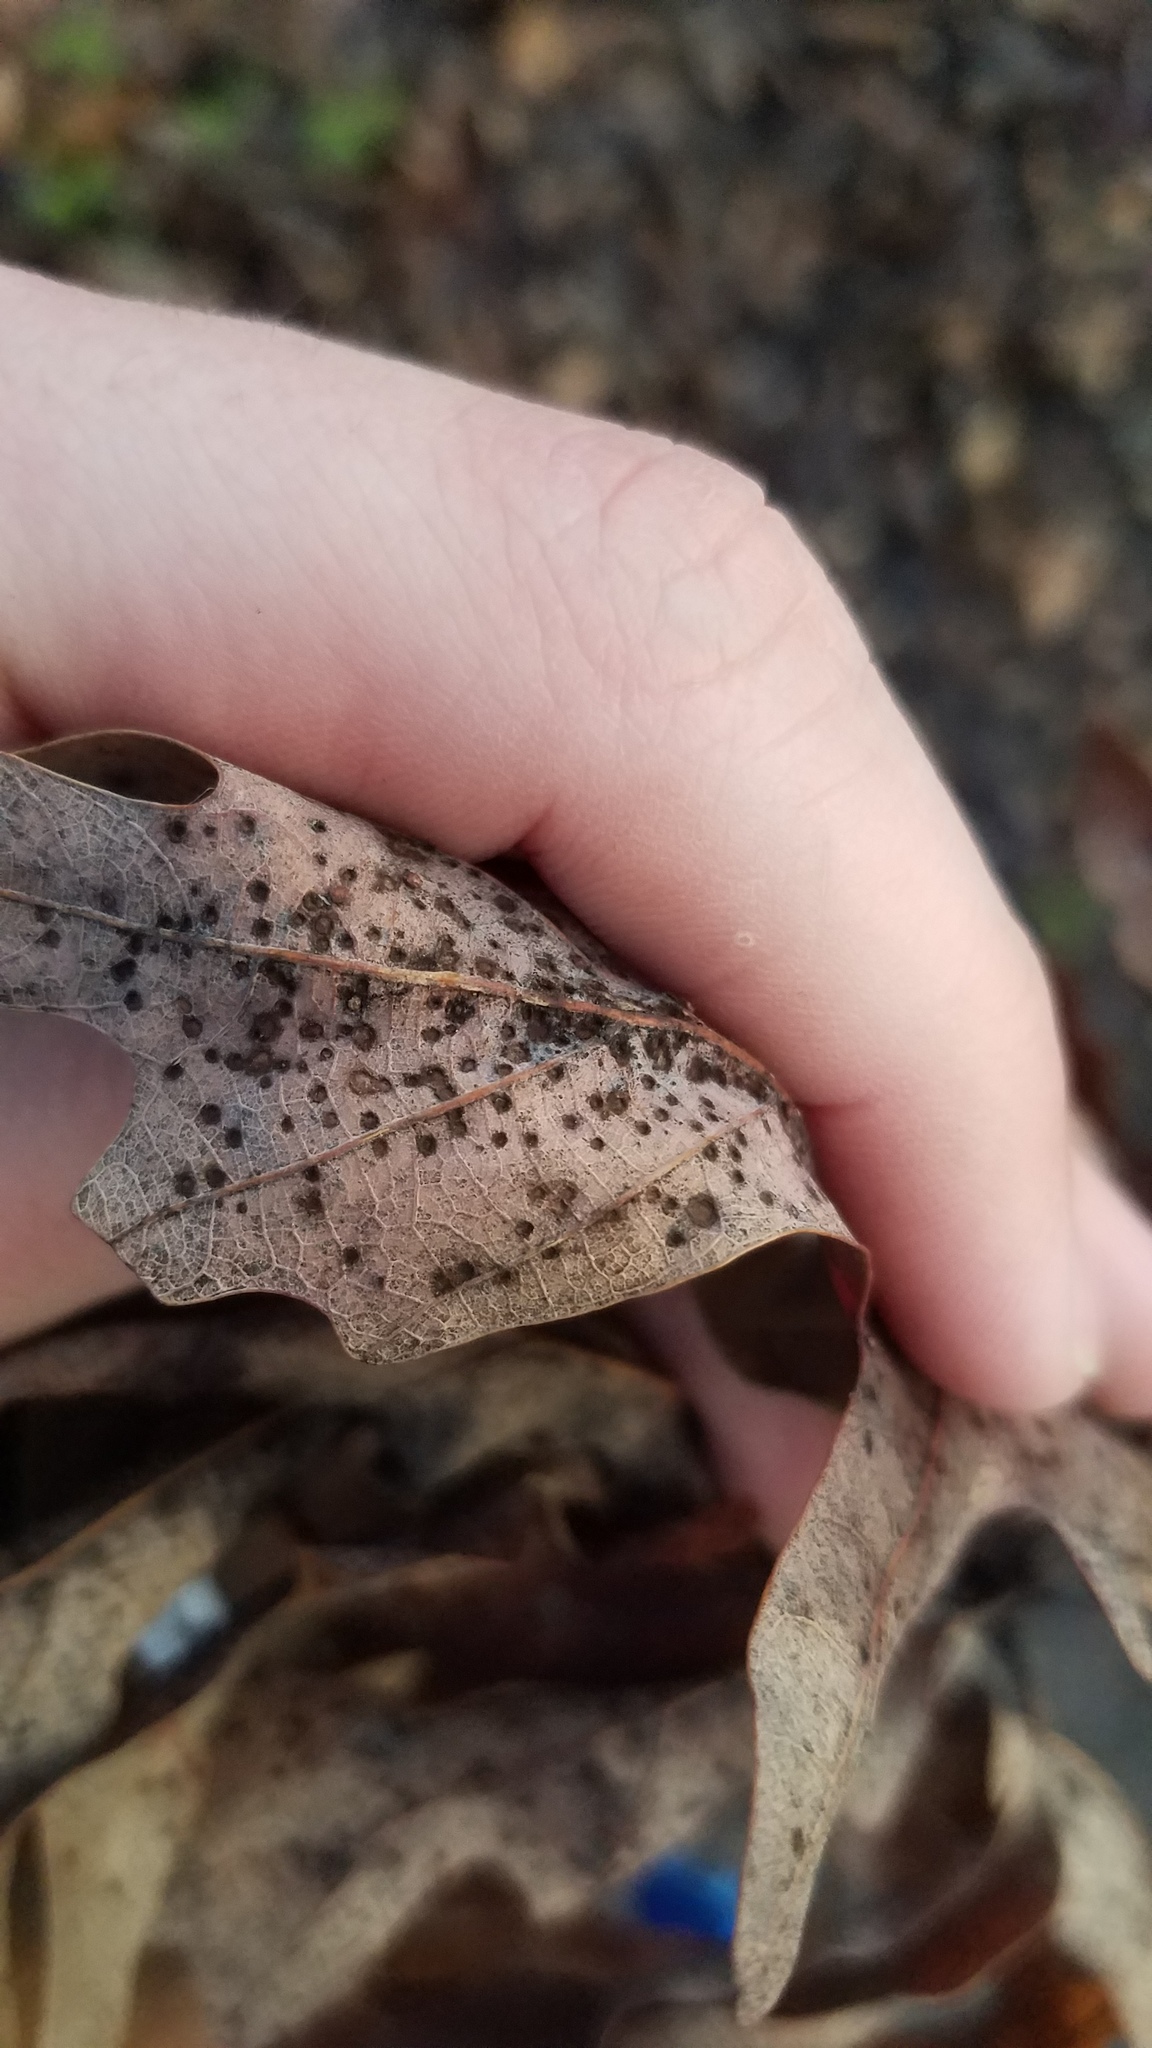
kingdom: Animalia
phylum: Arthropoda
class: Insecta
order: Hymenoptera
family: Cynipidae
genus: Neuroterus
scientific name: Neuroterus
